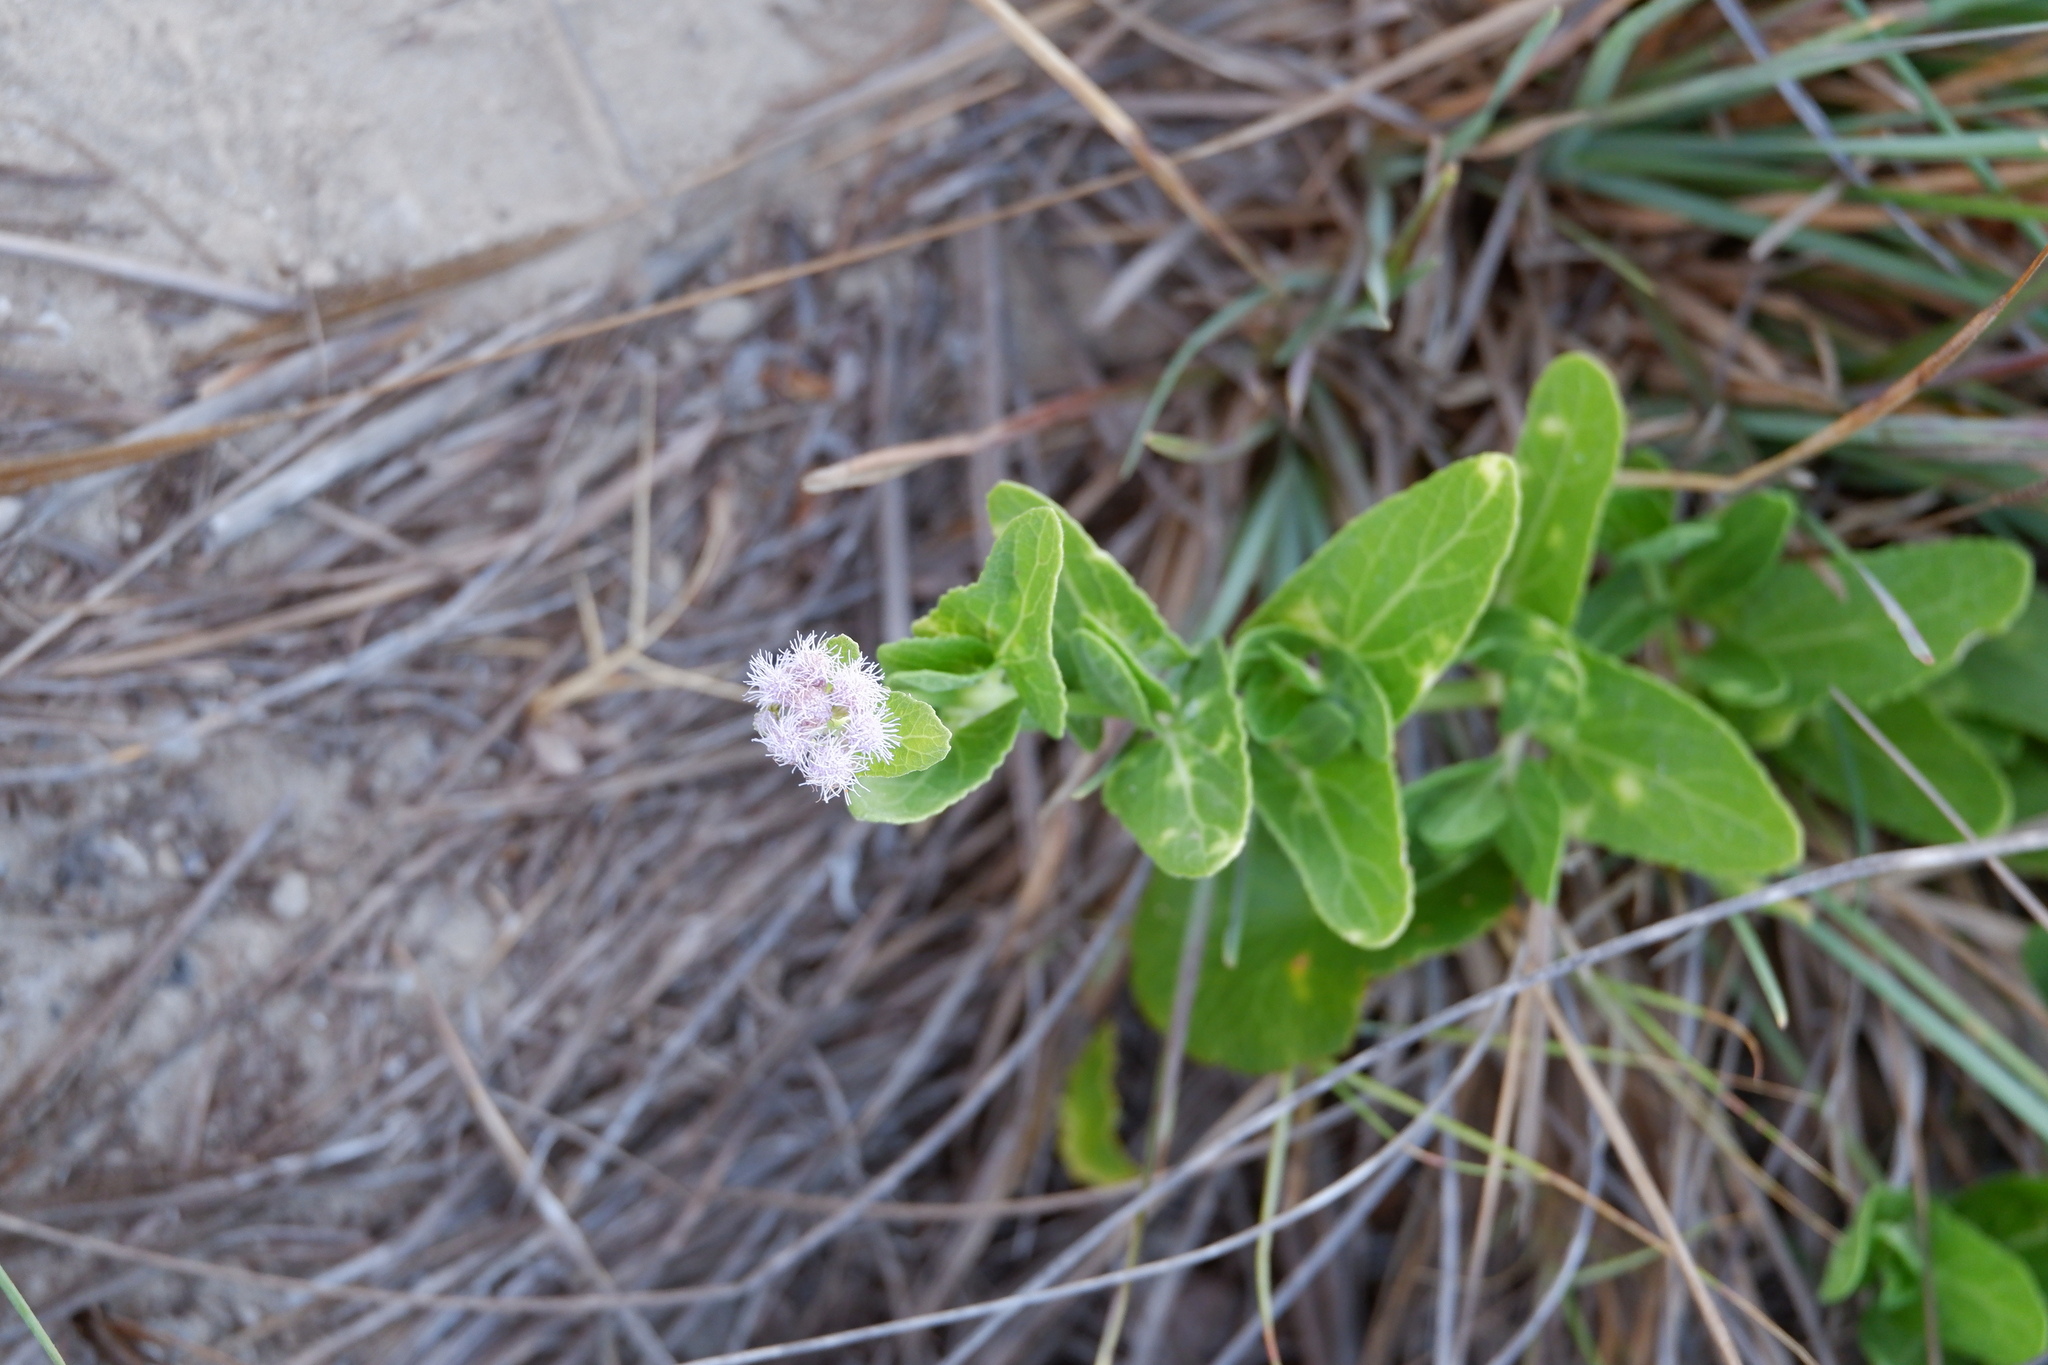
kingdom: Plantae
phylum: Tracheophyta
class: Magnoliopsida
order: Asterales
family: Asteraceae
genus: Conoclinium
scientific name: Conoclinium betonicifolium
